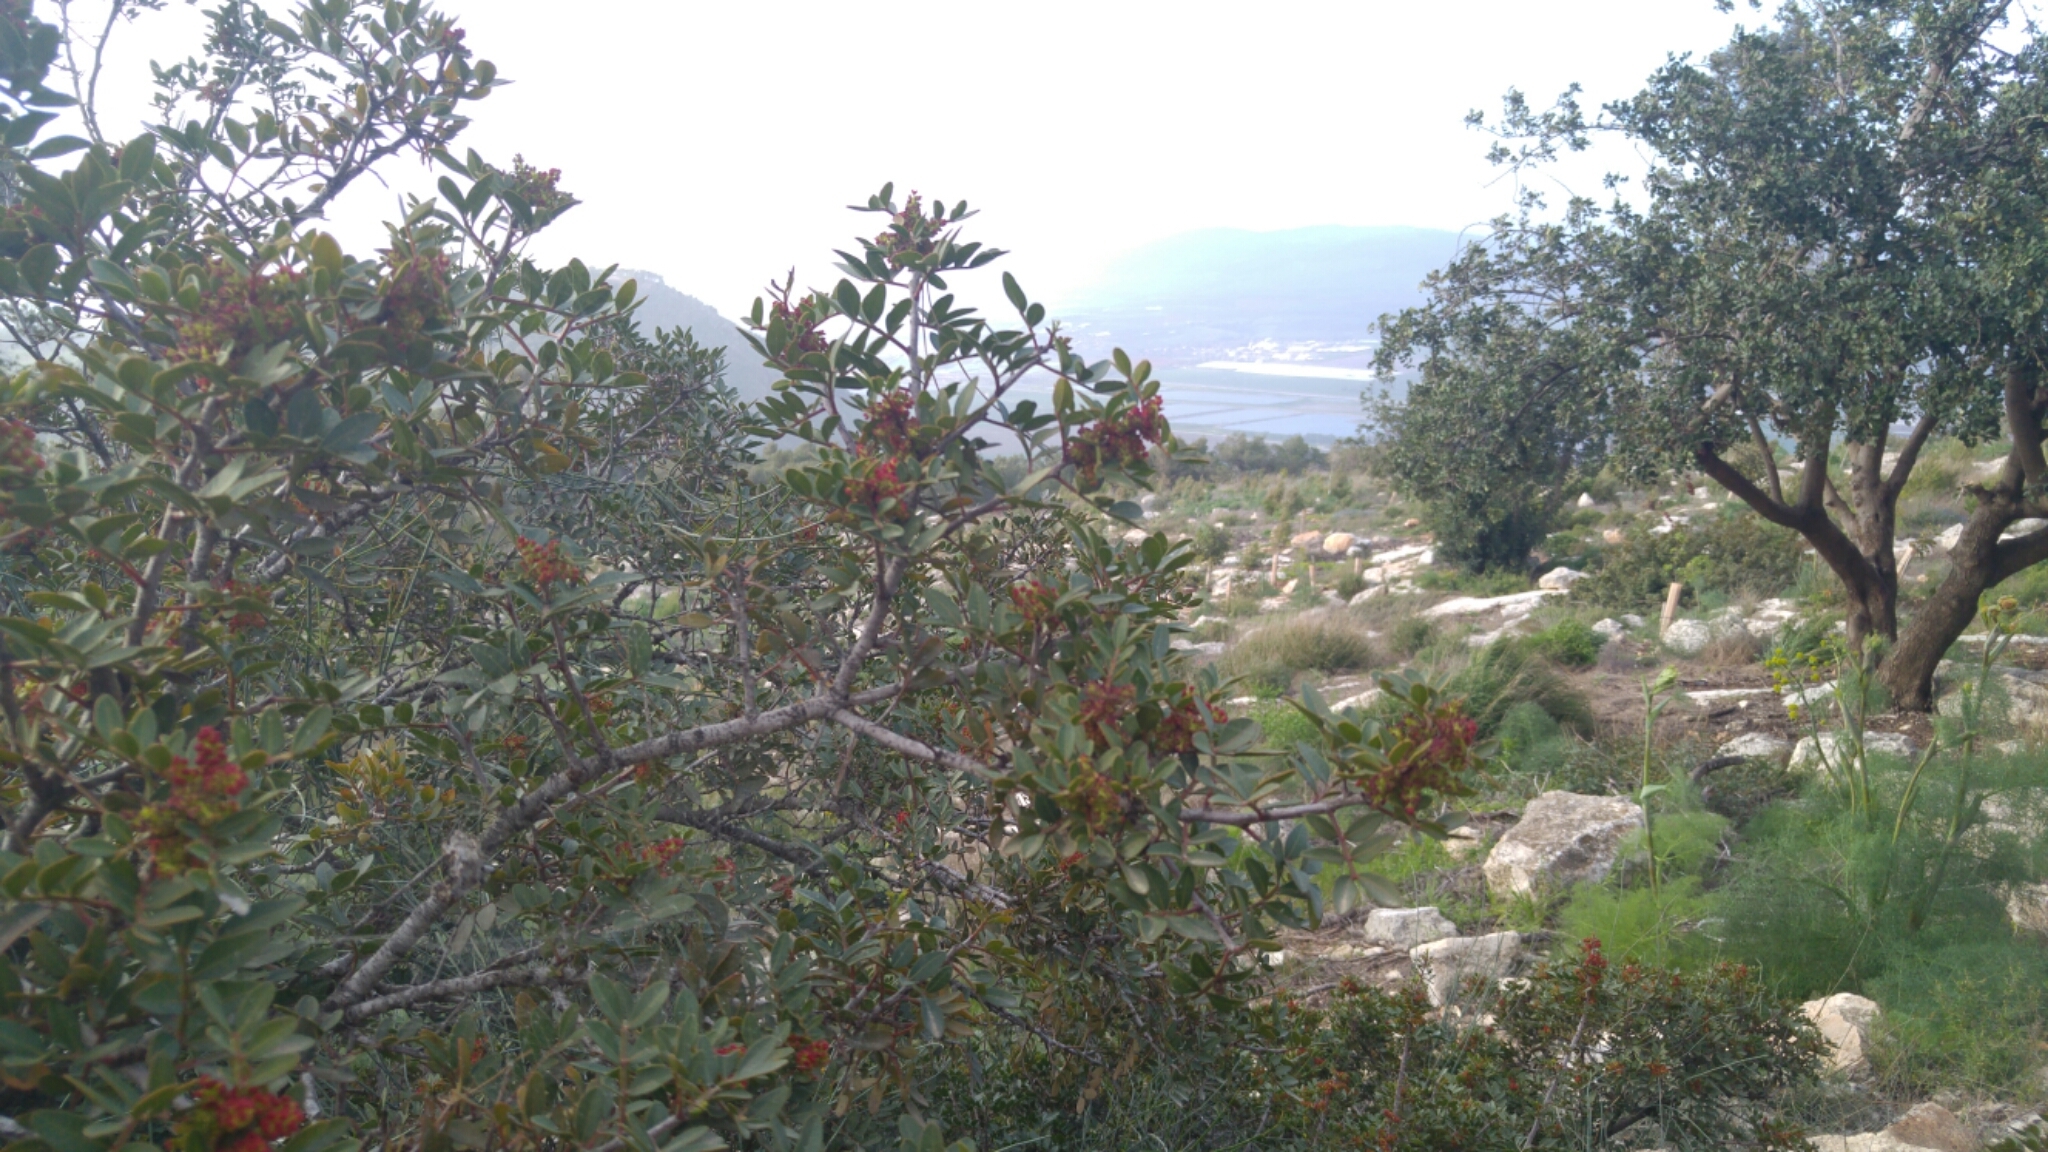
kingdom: Plantae
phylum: Tracheophyta
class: Magnoliopsida
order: Sapindales
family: Anacardiaceae
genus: Pistacia
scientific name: Pistacia lentiscus
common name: Lentisk
